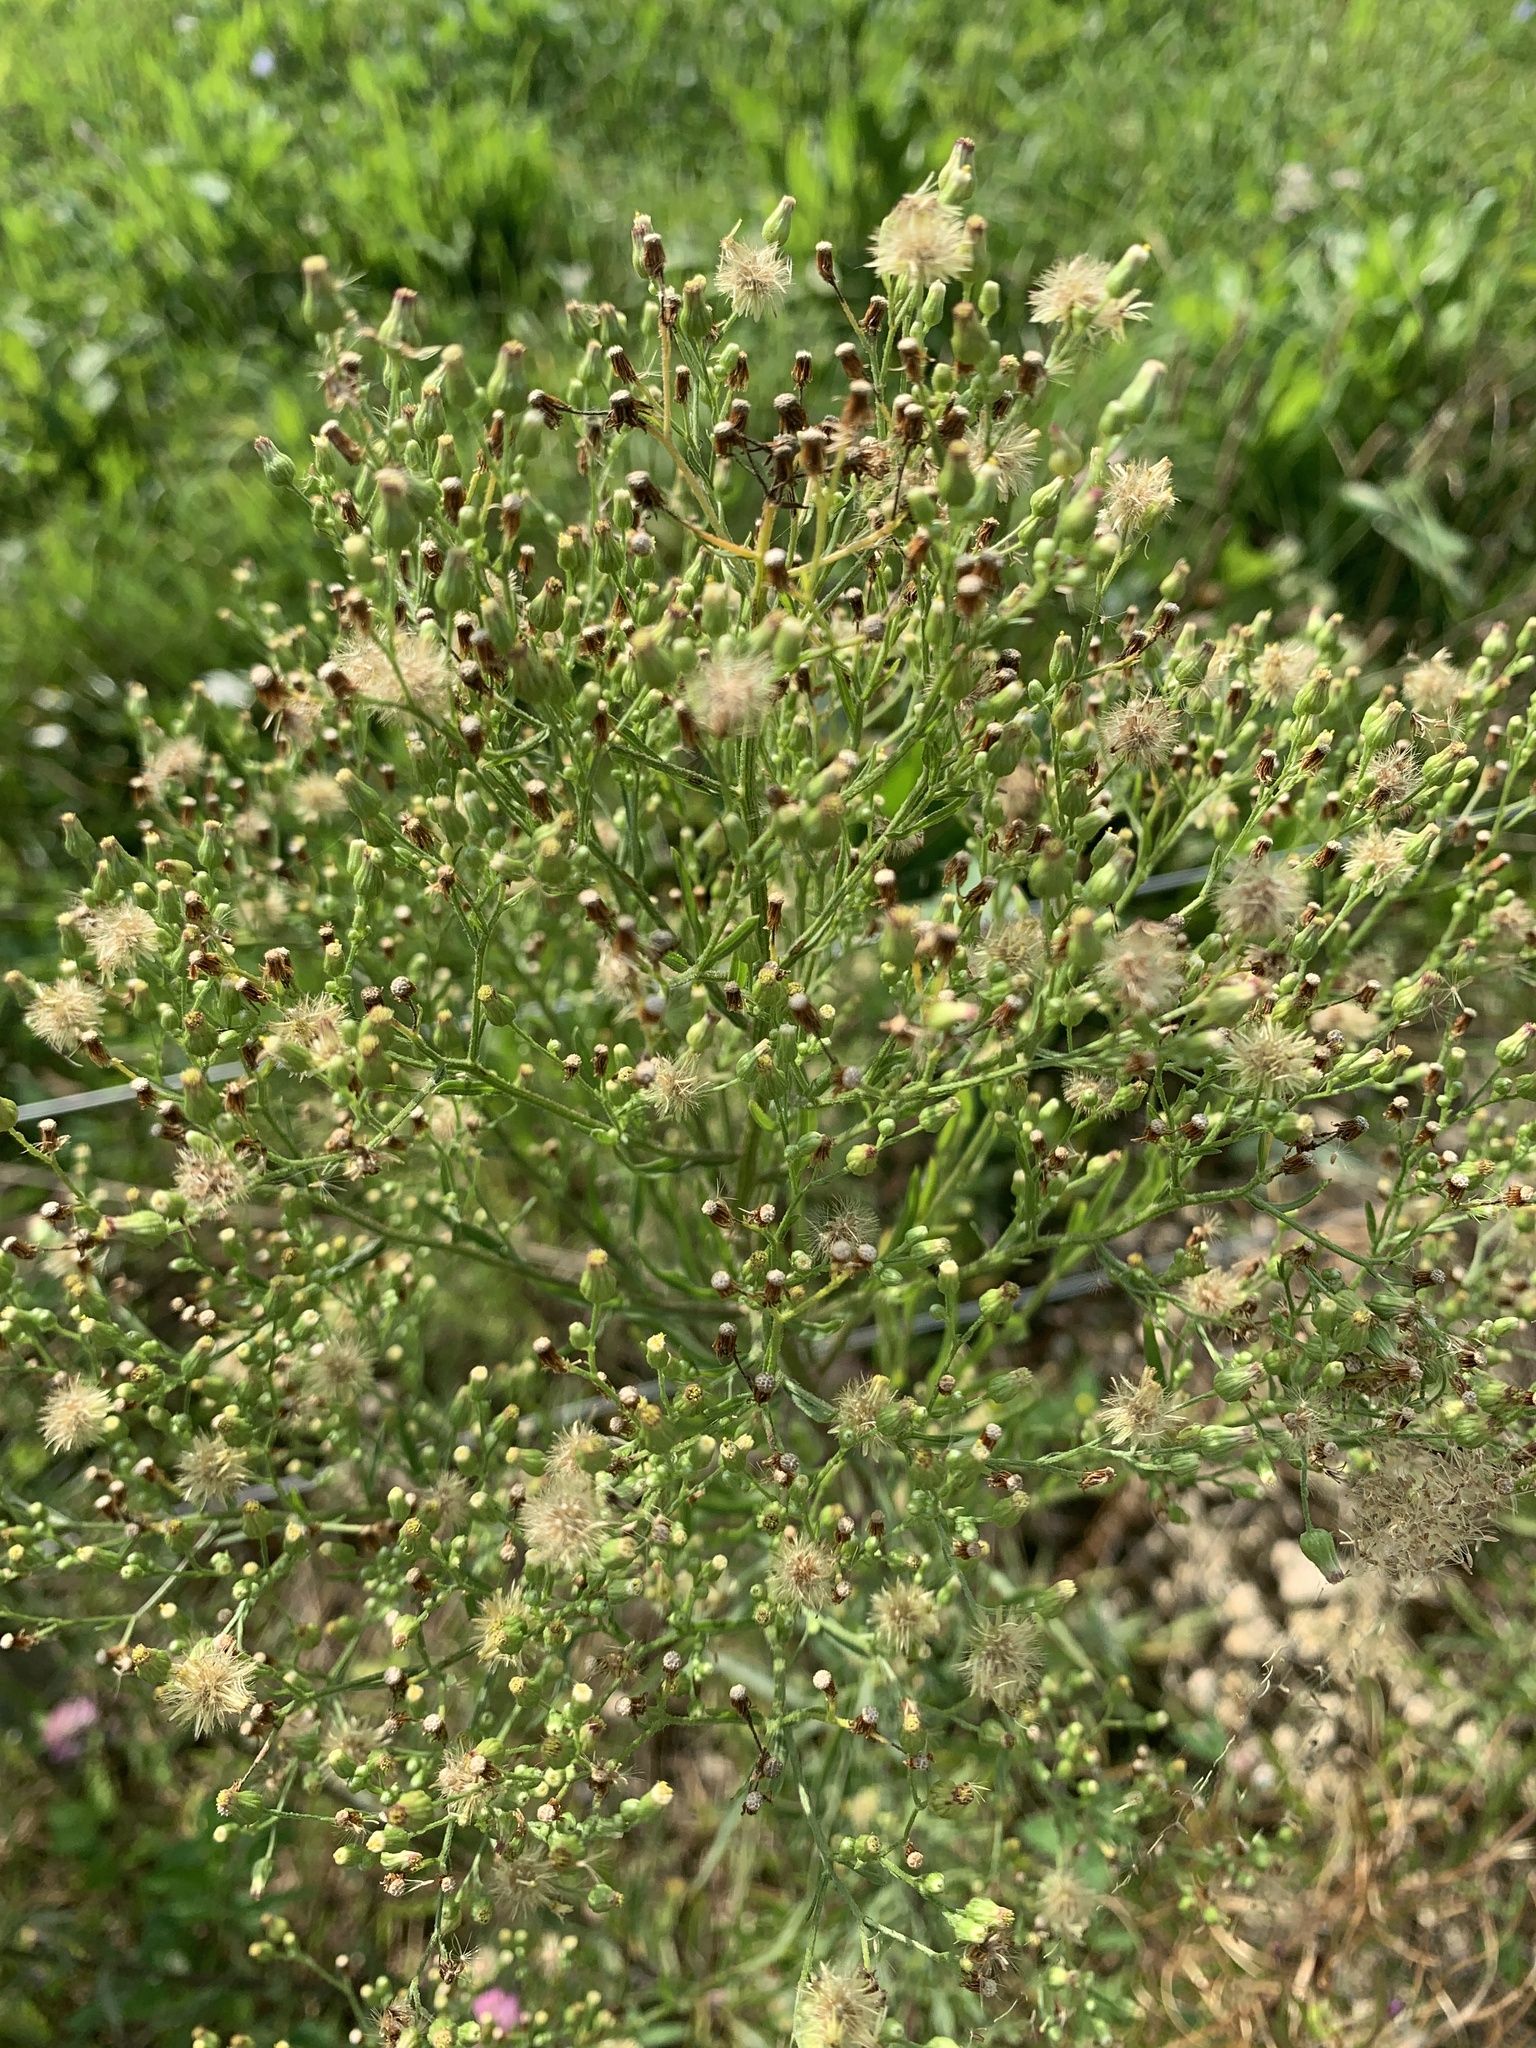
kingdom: Plantae
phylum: Tracheophyta
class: Magnoliopsida
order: Asterales
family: Asteraceae
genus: Erigeron
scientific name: Erigeron canadensis
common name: Canadian fleabane
